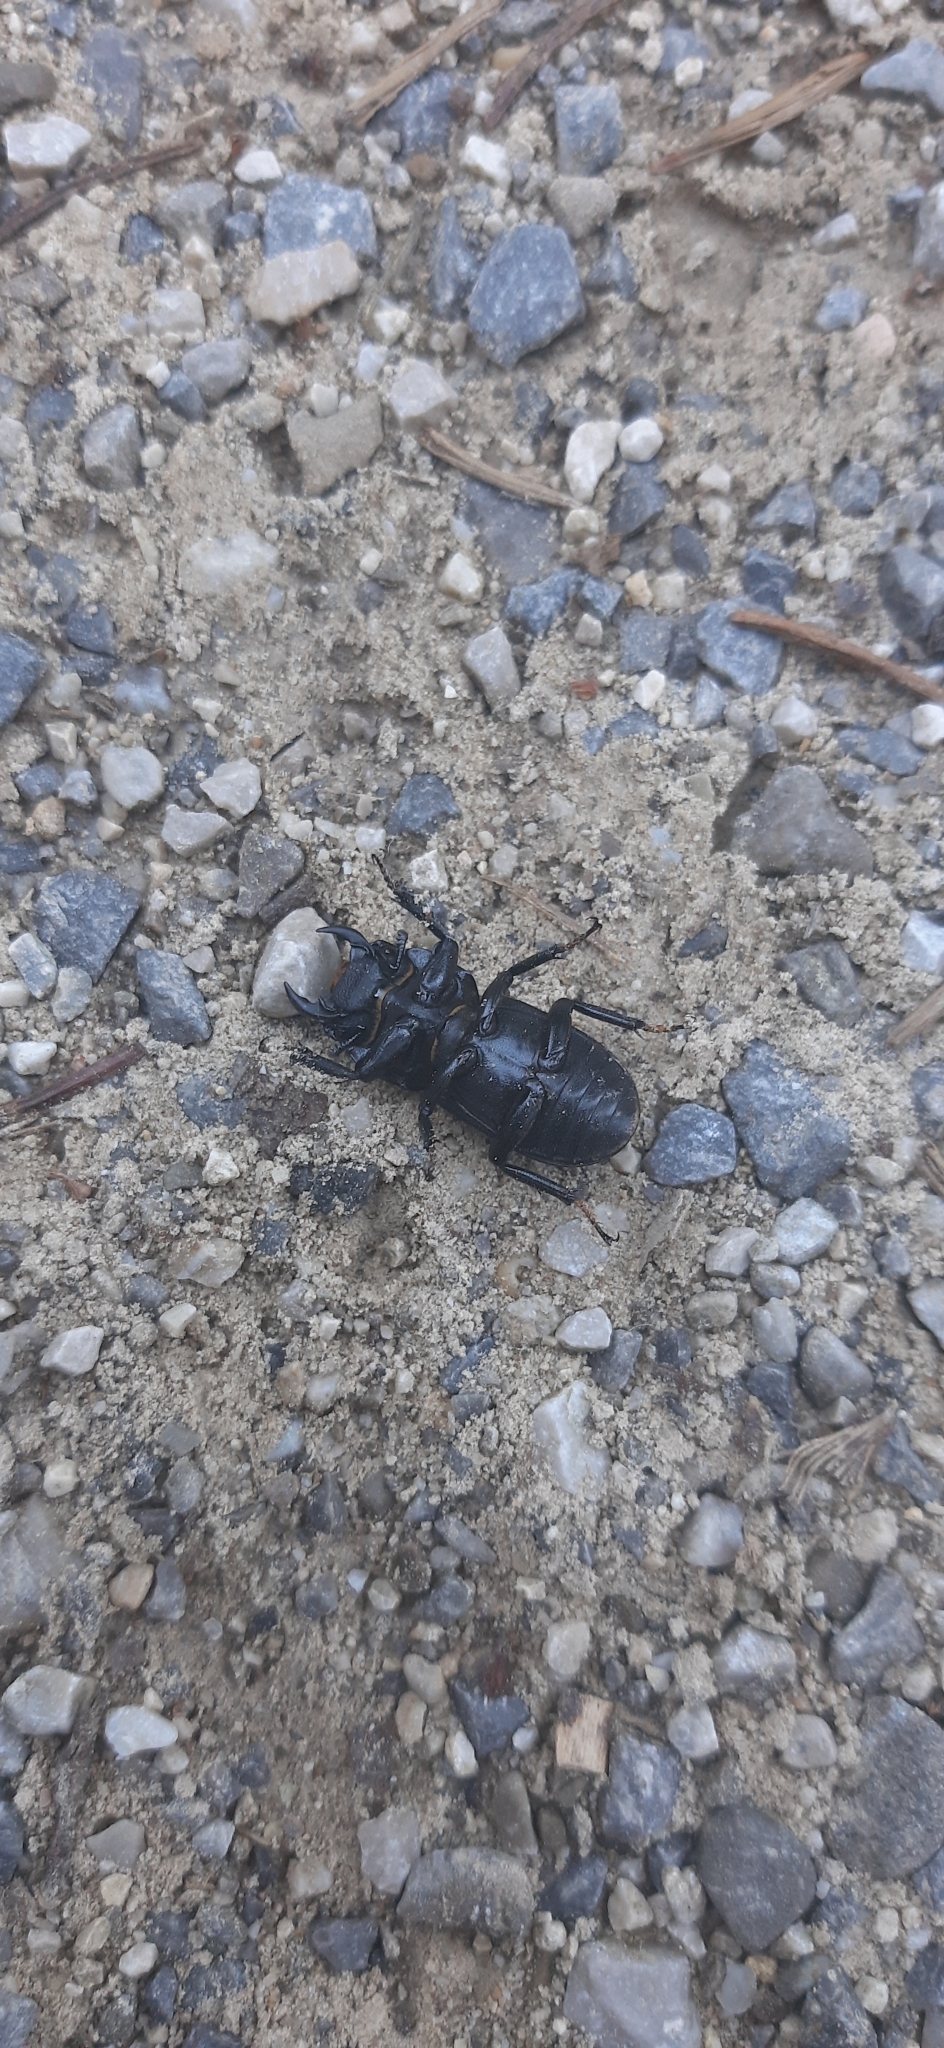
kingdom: Animalia
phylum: Arthropoda
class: Insecta
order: Coleoptera
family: Lucanidae
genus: Dorcus
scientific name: Dorcus parallelipipedus
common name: Lesser stag beetle
